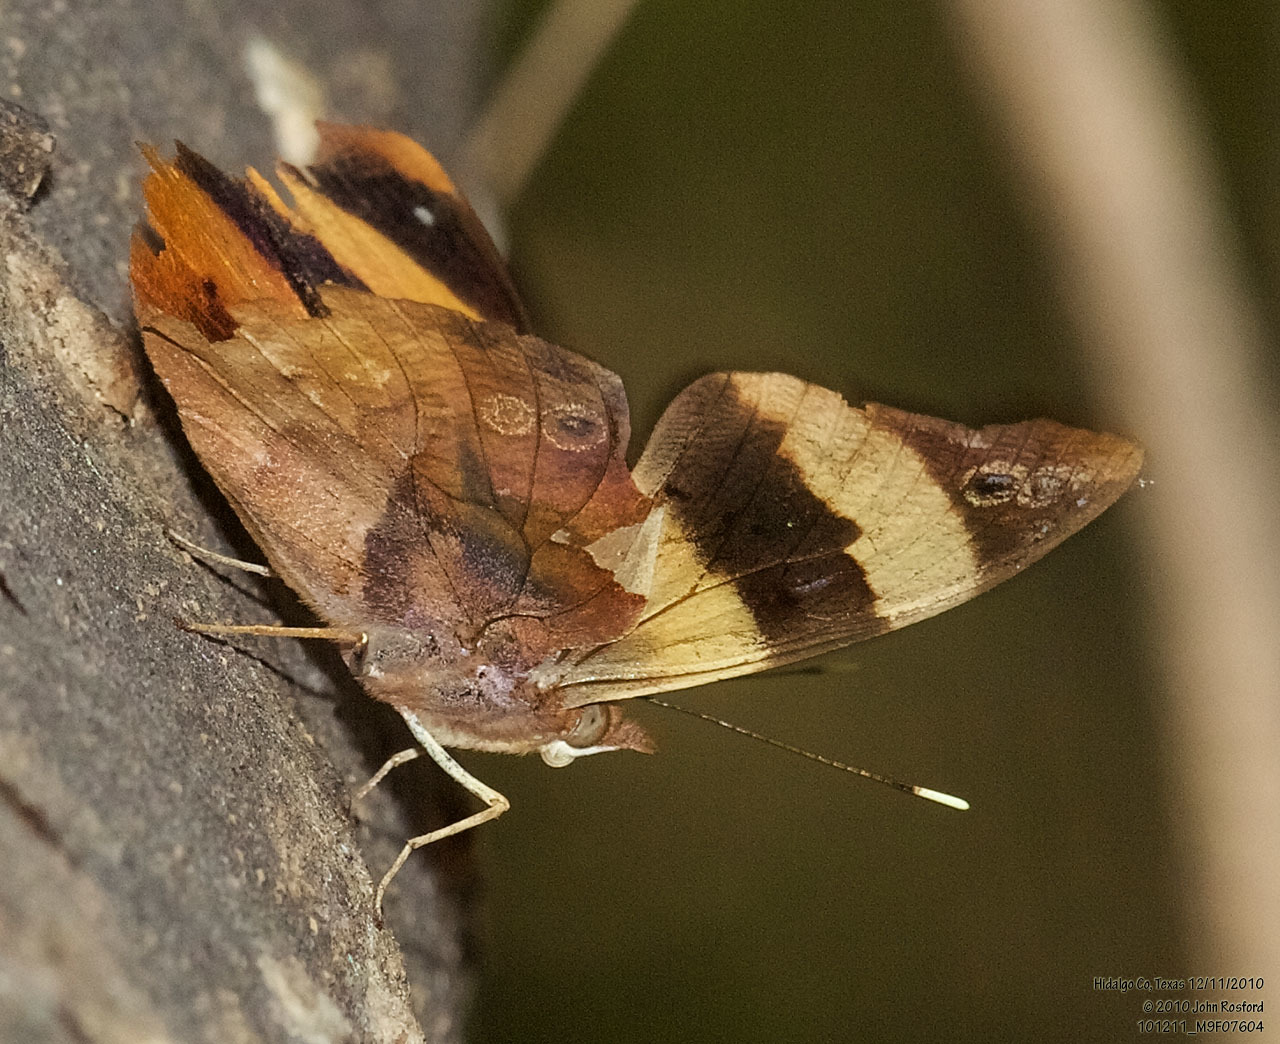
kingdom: Animalia
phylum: Arthropoda
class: Insecta
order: Lepidoptera
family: Nymphalidae
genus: Epiphile
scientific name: Epiphile adrasta
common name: Common banner
